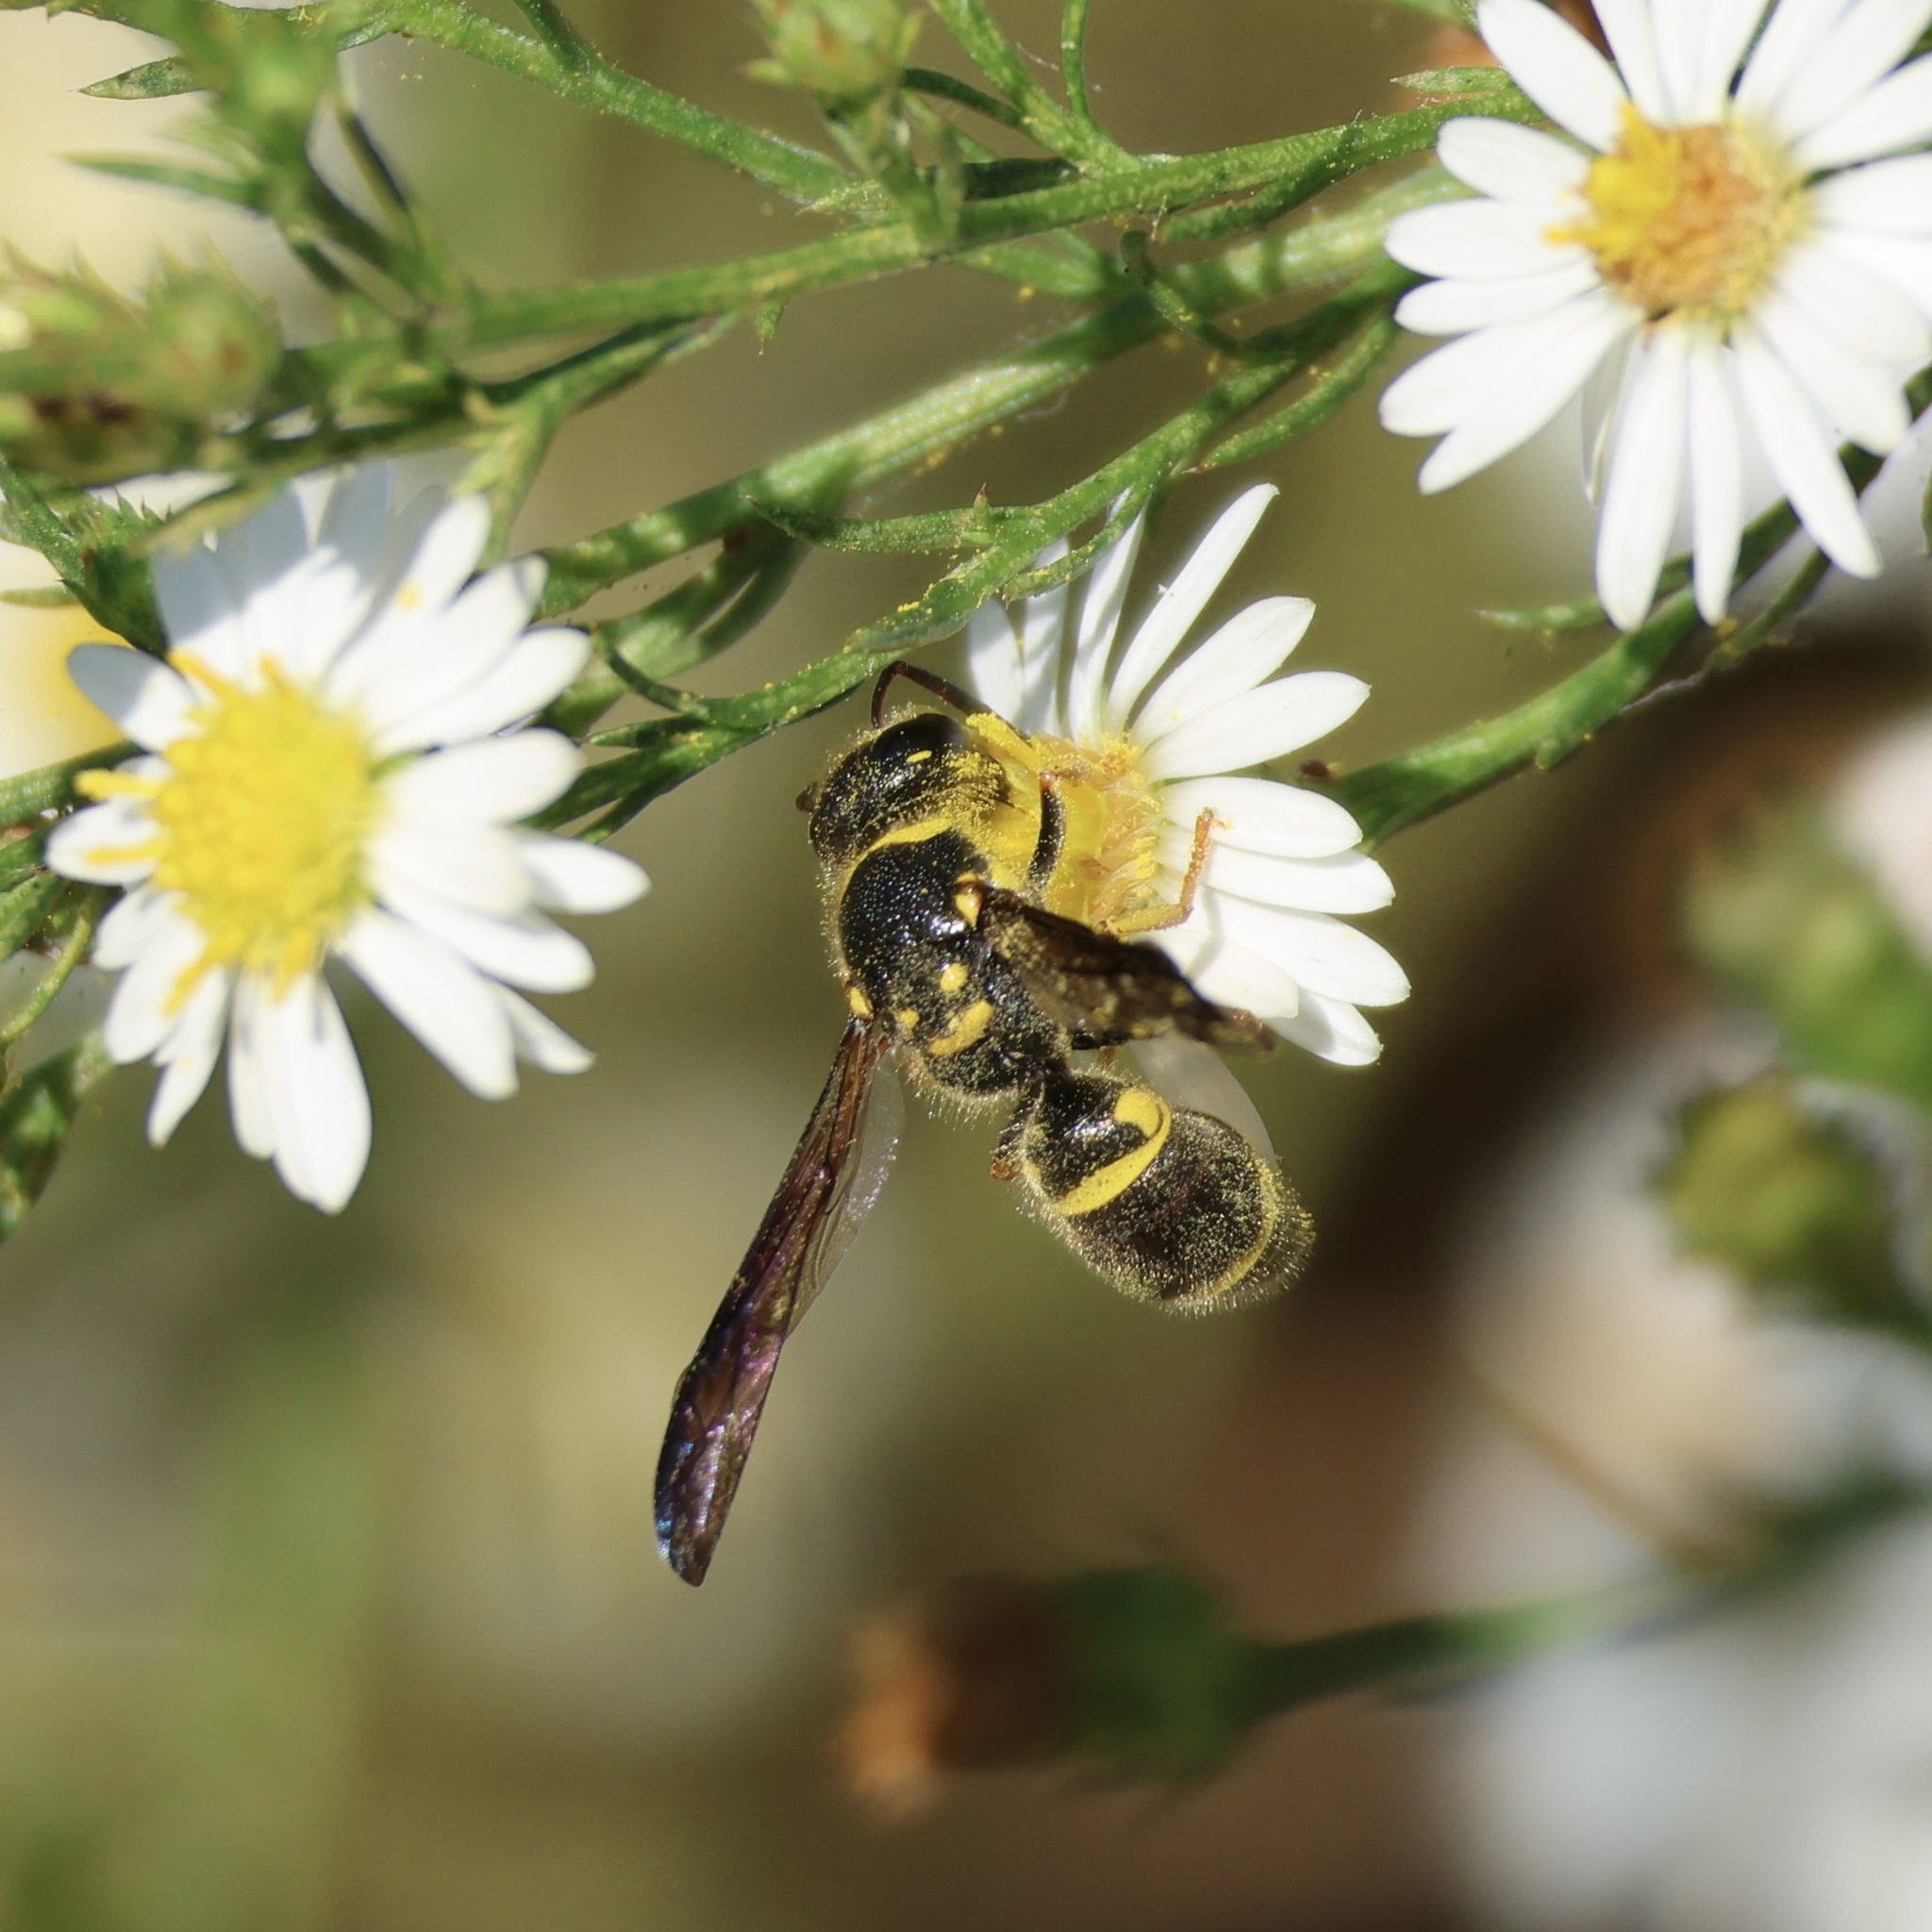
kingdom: Animalia
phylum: Arthropoda
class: Insecta
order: Hymenoptera
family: Vespidae
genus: Ancistrocerus
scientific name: Ancistrocerus campestris
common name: Smiling mason wasp
